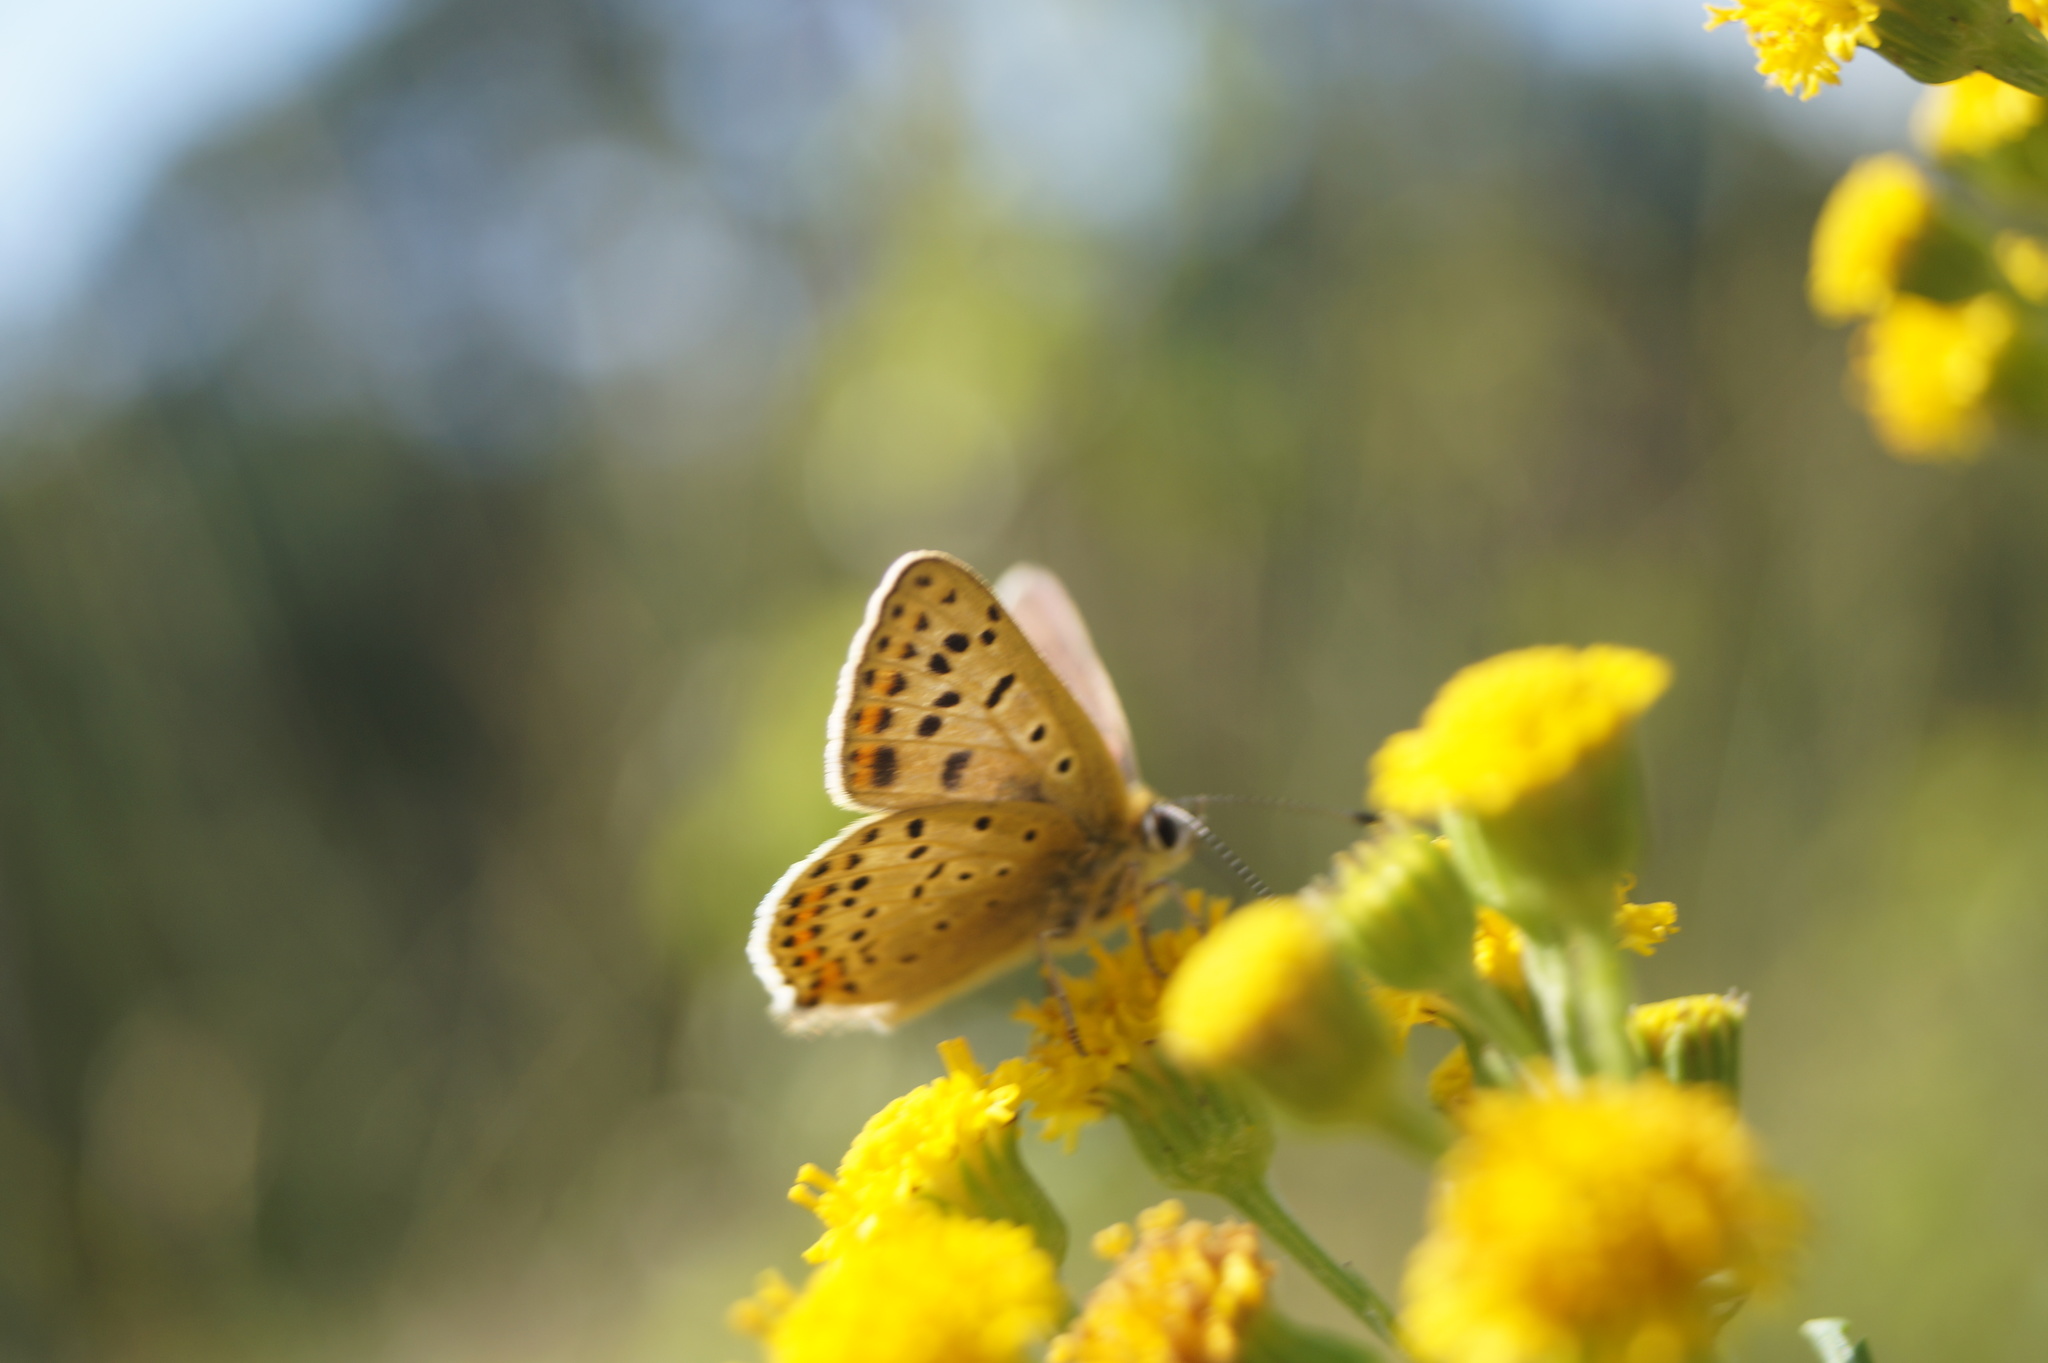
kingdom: Animalia
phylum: Arthropoda
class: Insecta
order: Lepidoptera
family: Lycaenidae
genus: Loweia
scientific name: Loweia tityrus
